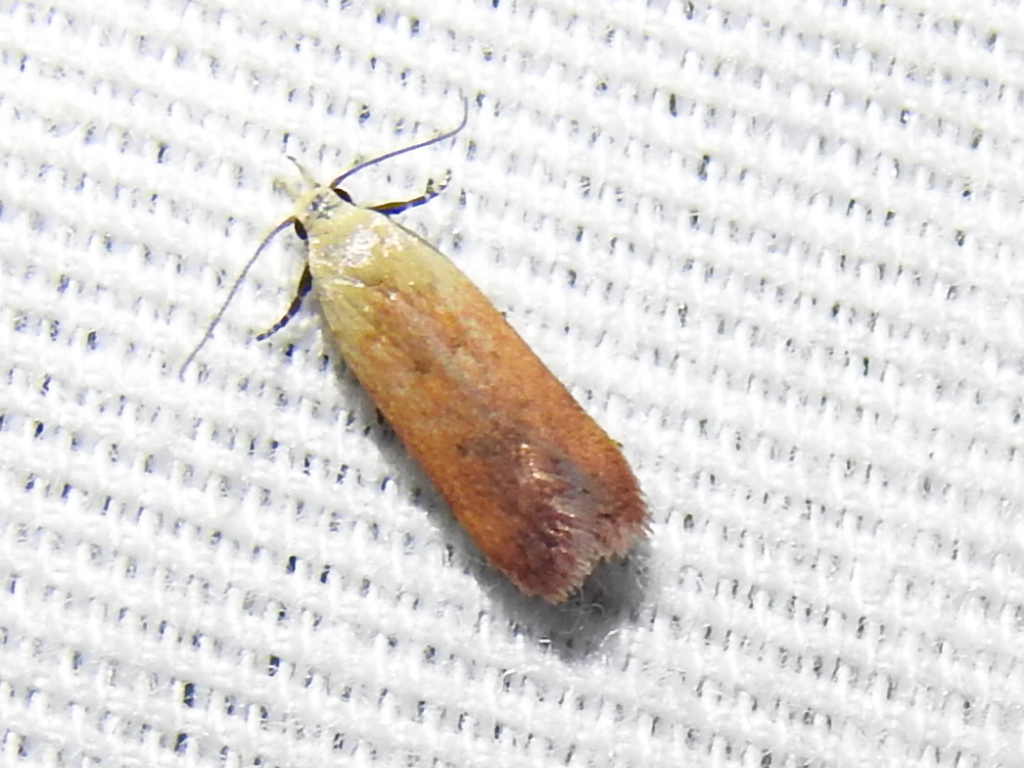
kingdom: Animalia
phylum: Arthropoda
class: Insecta
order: Lepidoptera
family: Gelechiidae
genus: Anacampsis
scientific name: Anacampsis fullonella
